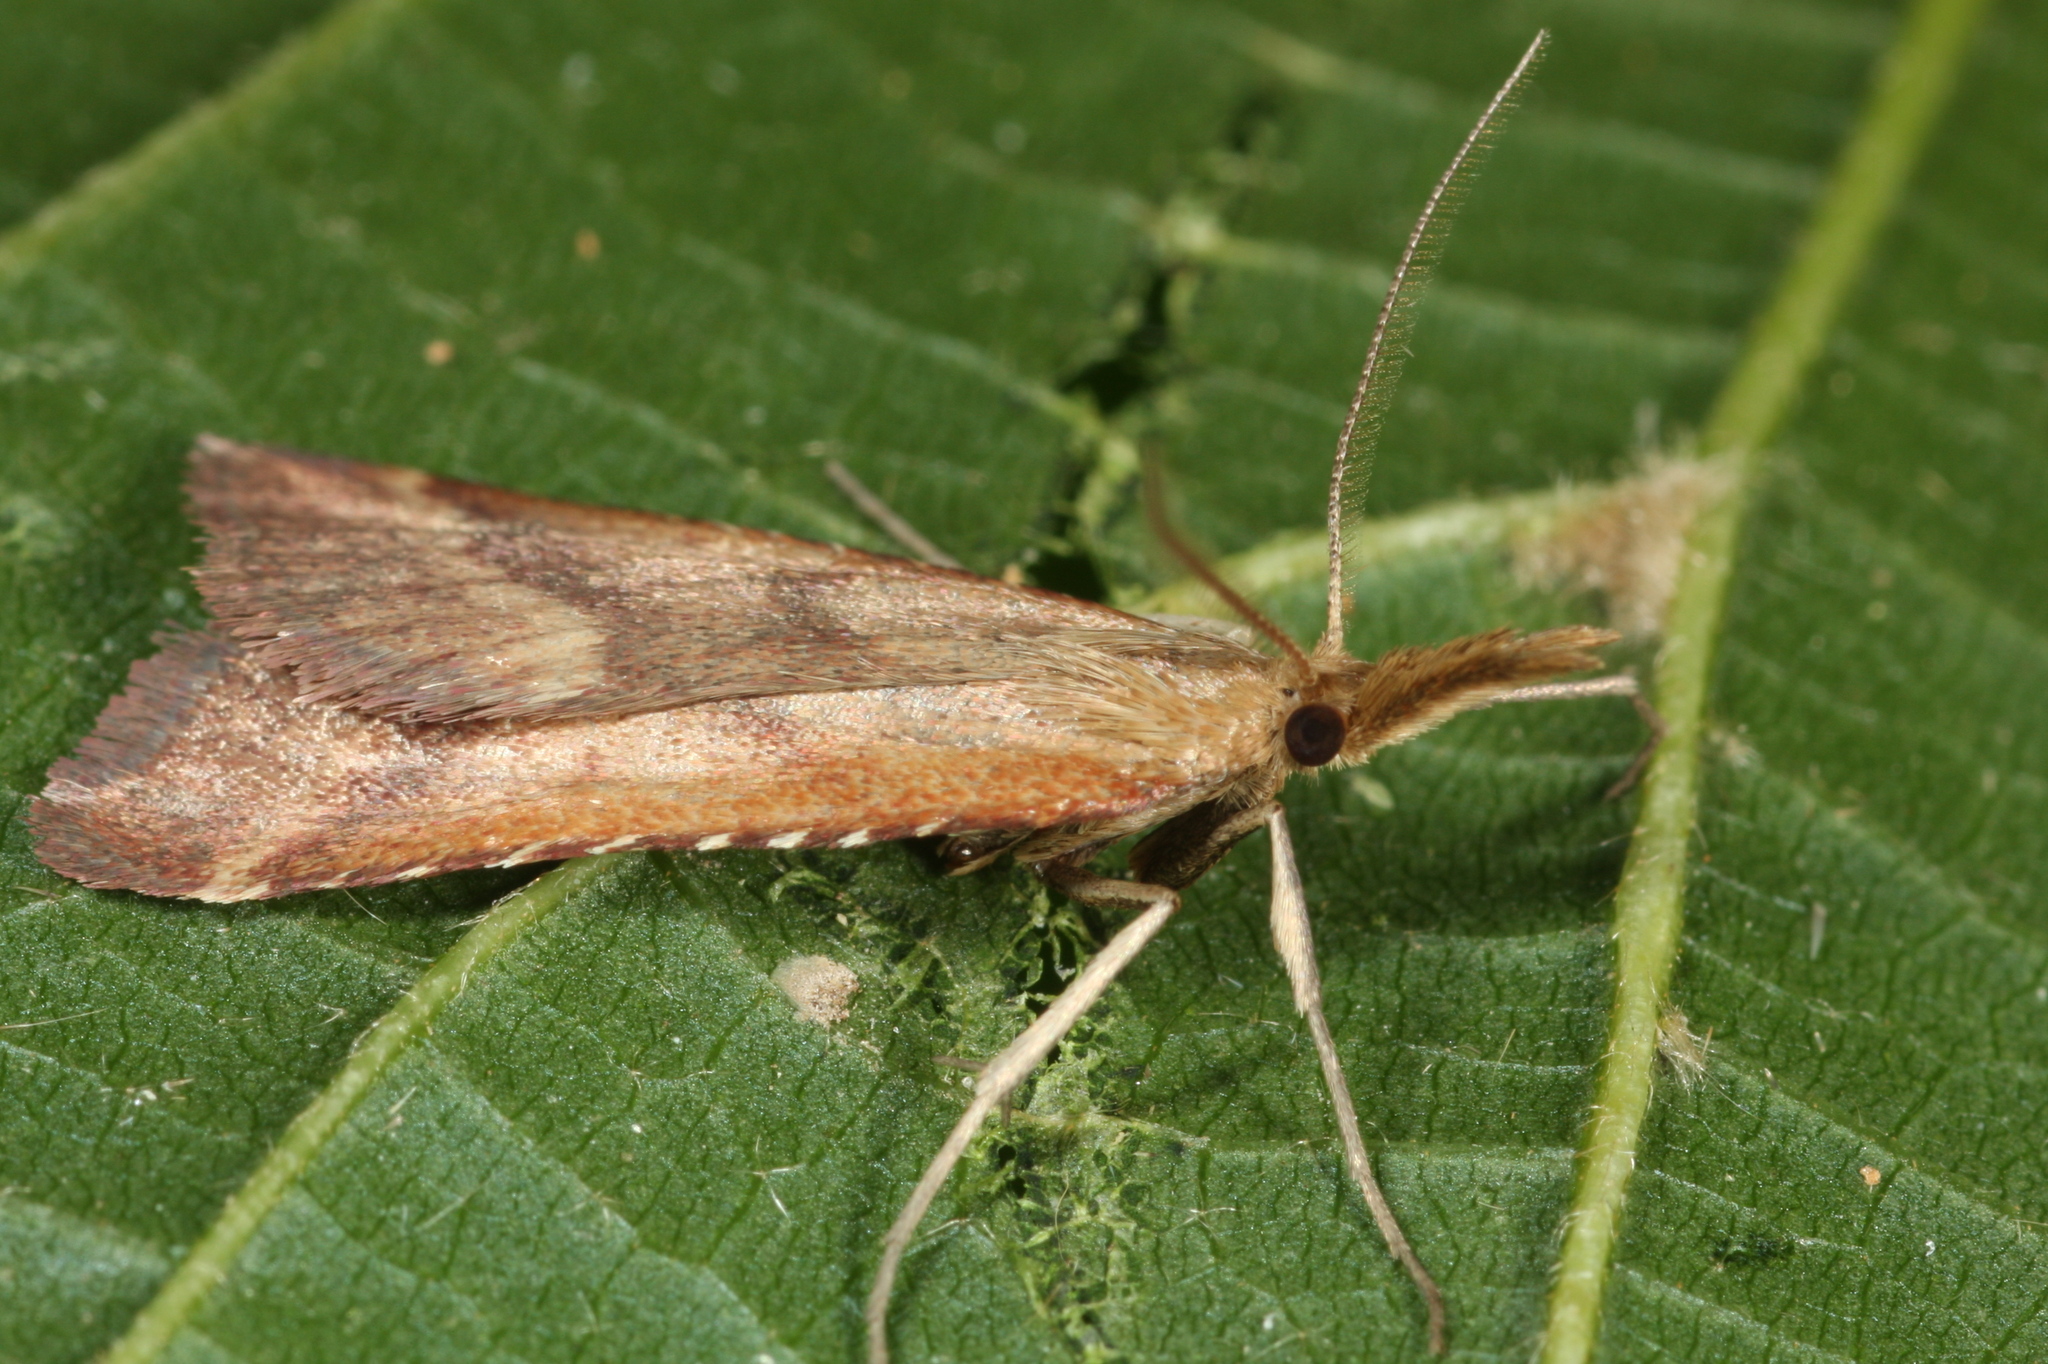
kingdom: Animalia
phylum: Arthropoda
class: Insecta
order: Lepidoptera
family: Pyralidae
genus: Synaphe
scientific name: Synaphe punctalis
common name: Long-legged tabby
